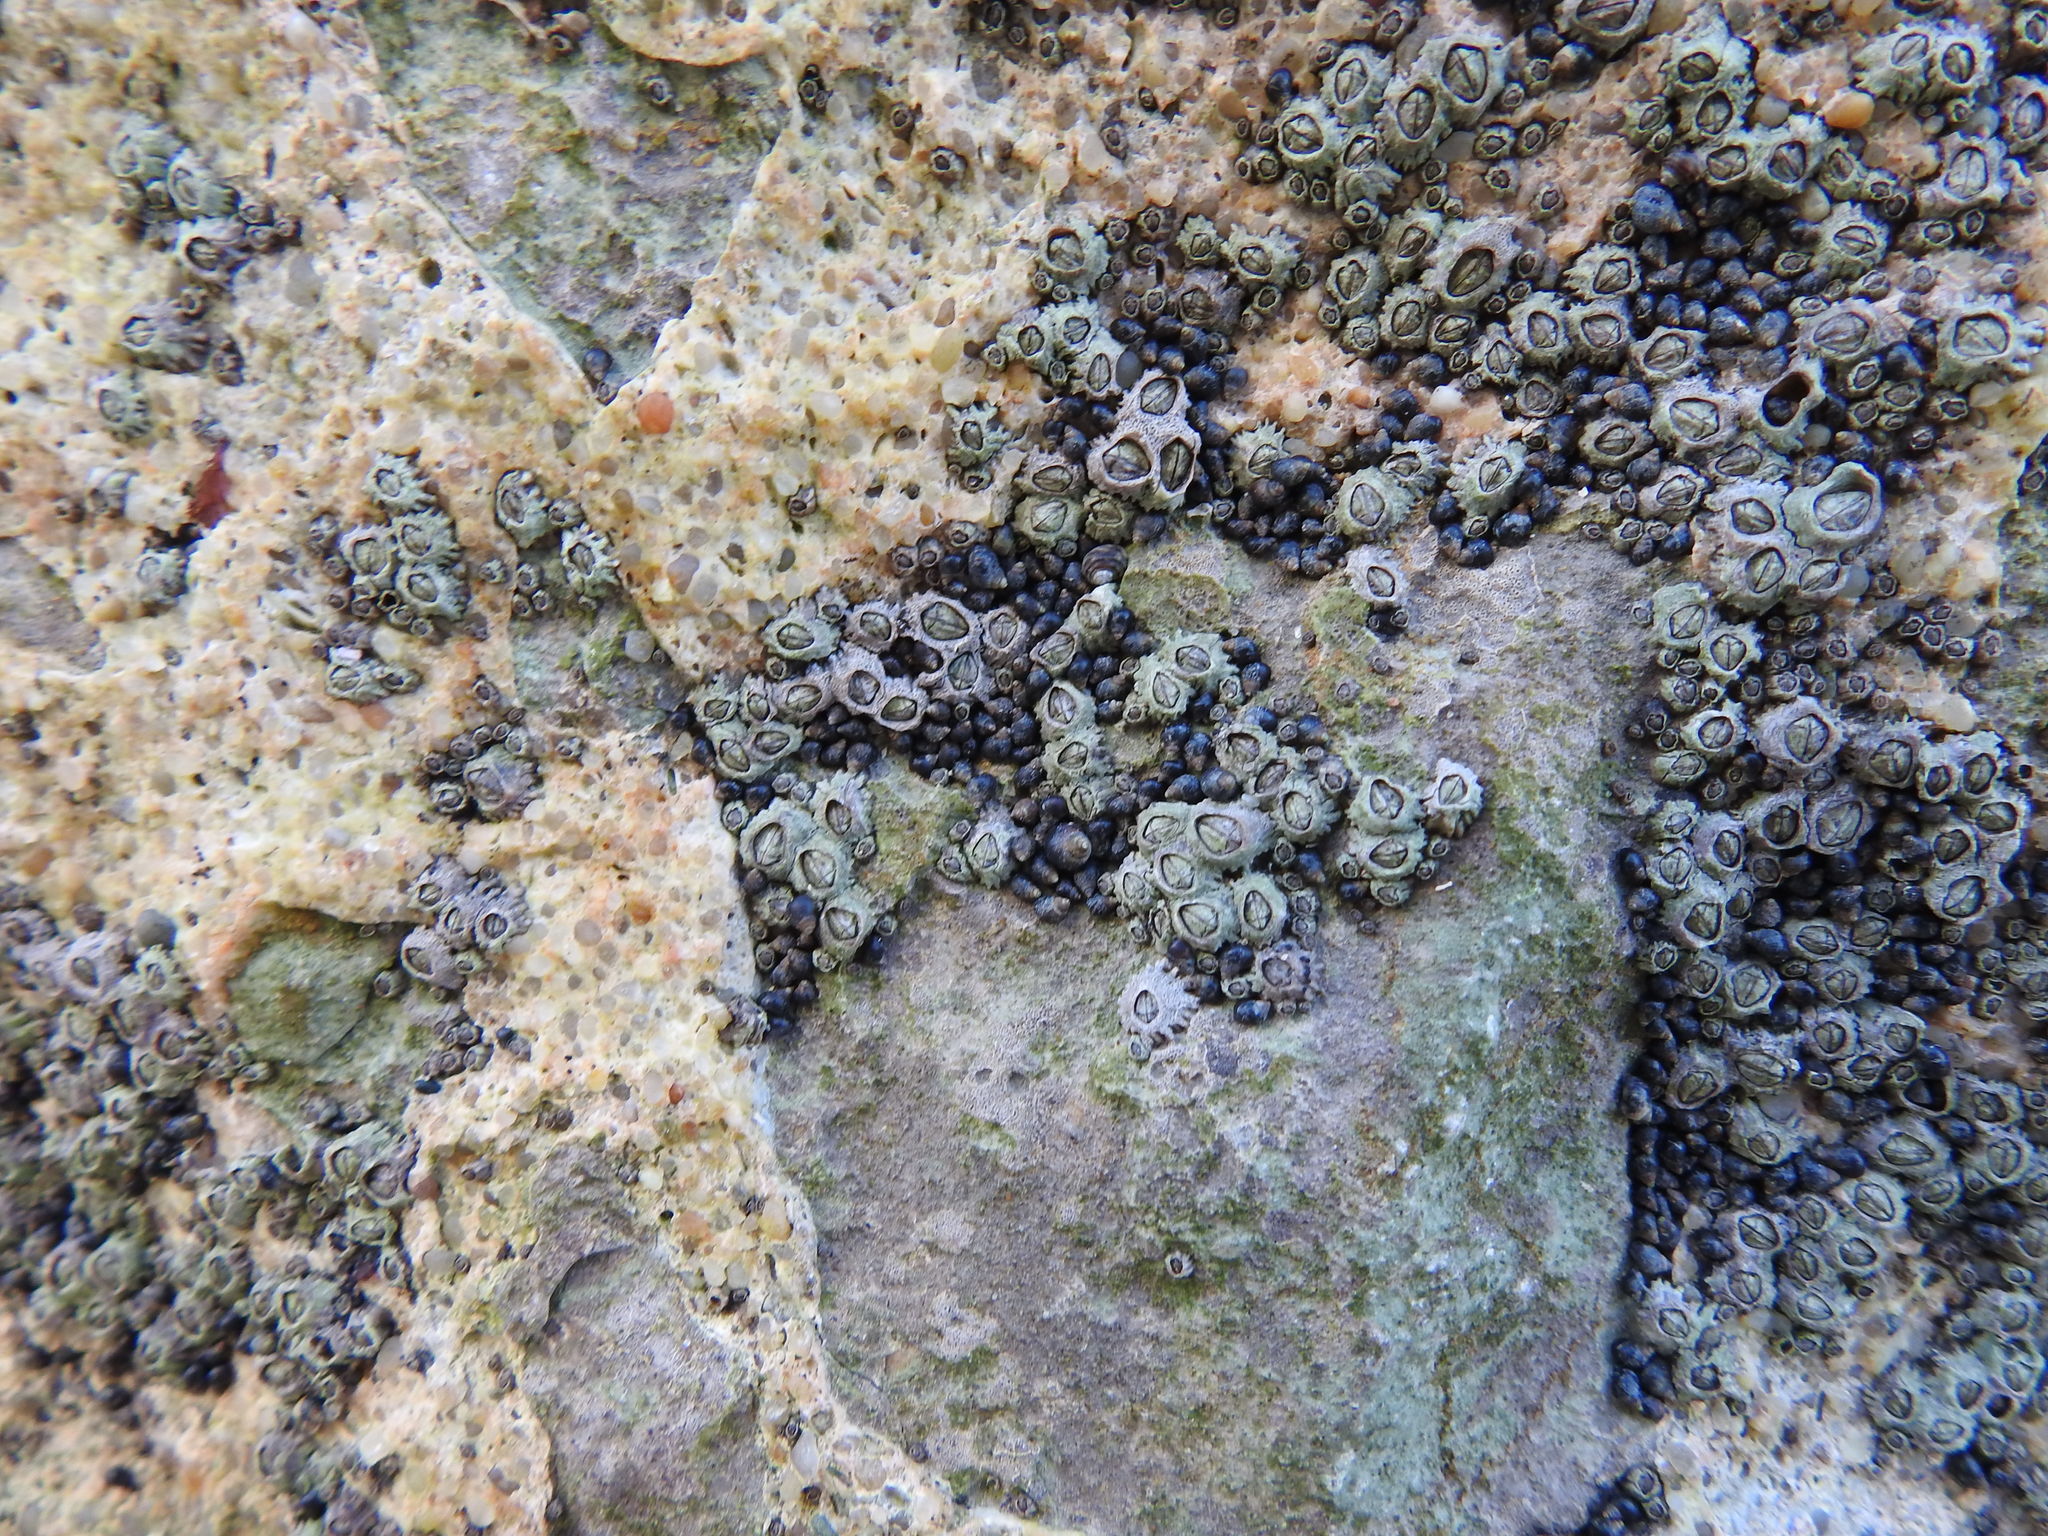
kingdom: Animalia
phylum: Mollusca
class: Gastropoda
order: Littorinimorpha
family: Littorinidae
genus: Melarhaphe
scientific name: Melarhaphe neritoides
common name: Small periwinkle
